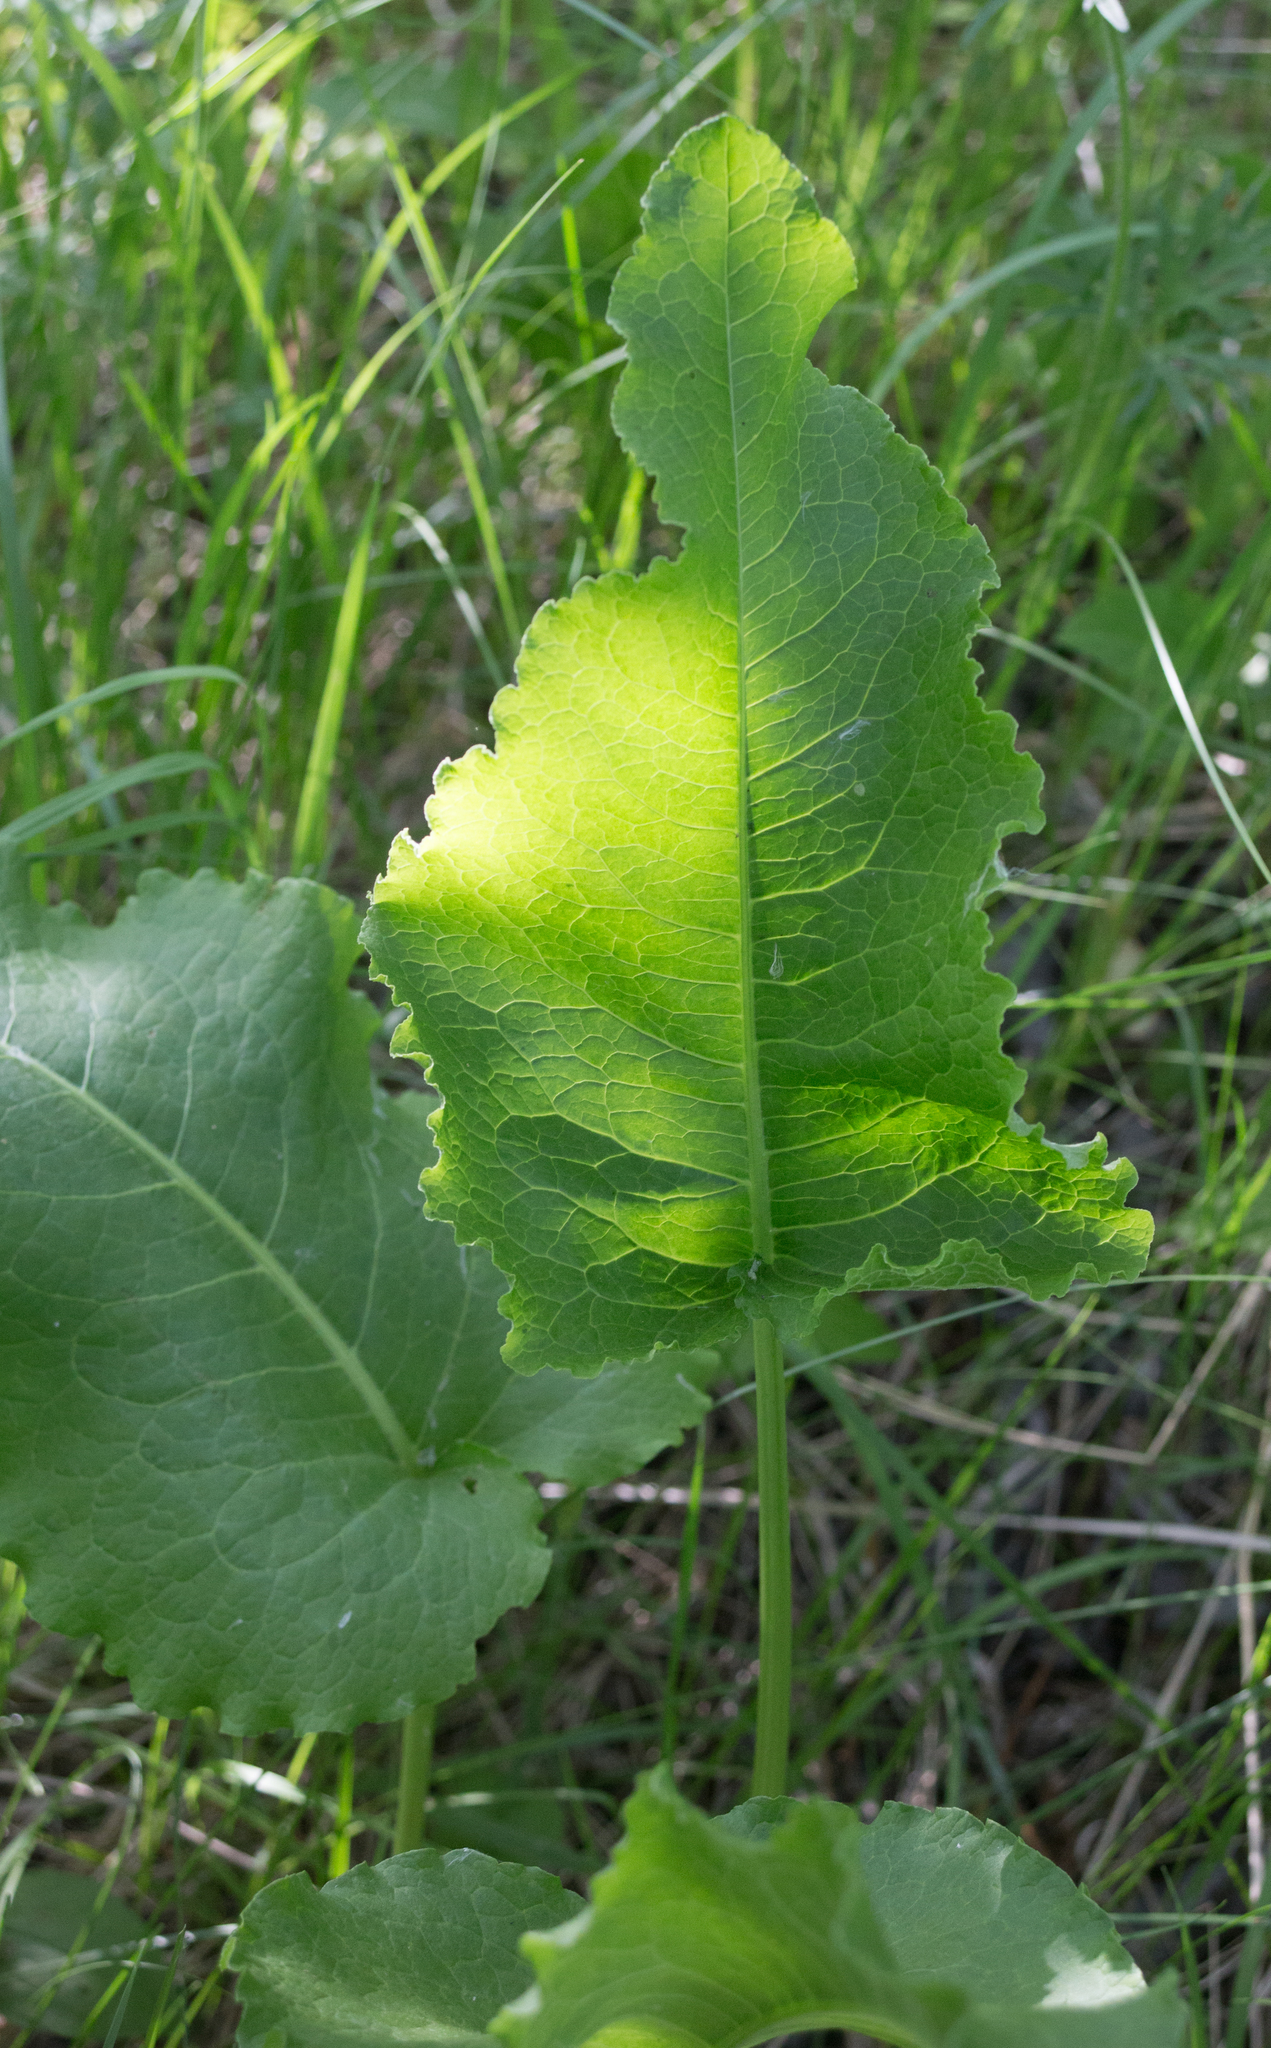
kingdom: Plantae
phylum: Tracheophyta
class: Magnoliopsida
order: Caryophyllales
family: Polygonaceae
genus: Rumex
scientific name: Rumex confertus
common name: Russian dock
